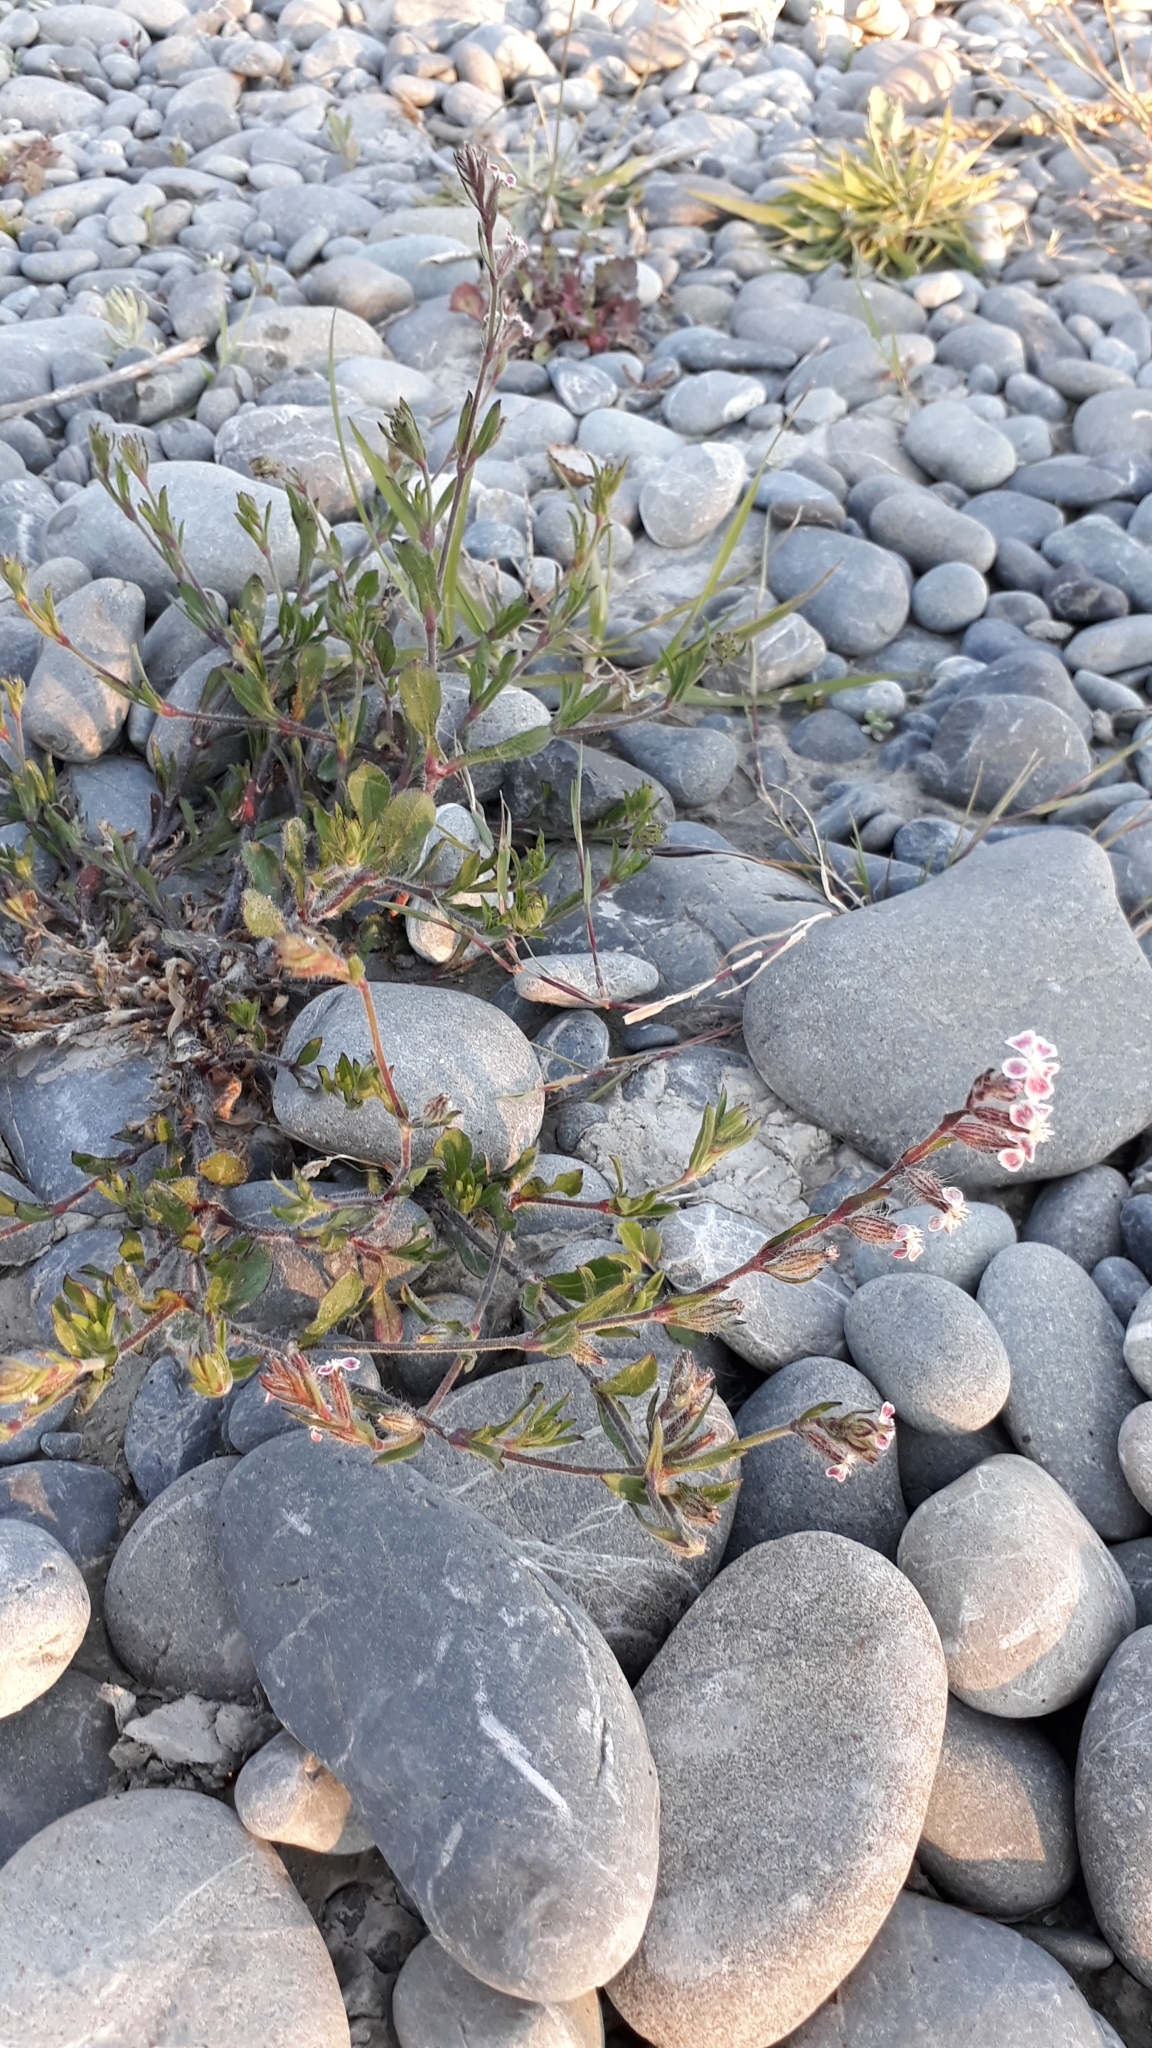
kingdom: Plantae
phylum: Tracheophyta
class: Magnoliopsida
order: Caryophyllales
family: Caryophyllaceae
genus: Silene
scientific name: Silene gallica
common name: Small-flowered catchfly
